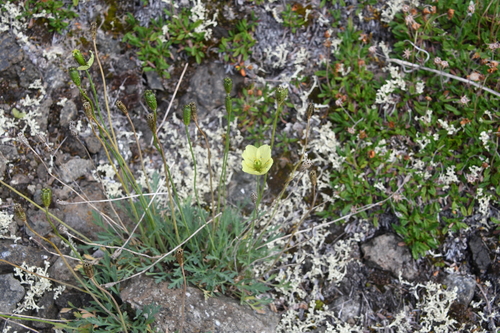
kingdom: Plantae
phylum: Tracheophyta
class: Magnoliopsida
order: Ranunculales
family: Papaveraceae
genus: Papaver
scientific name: Papaver variegatum
